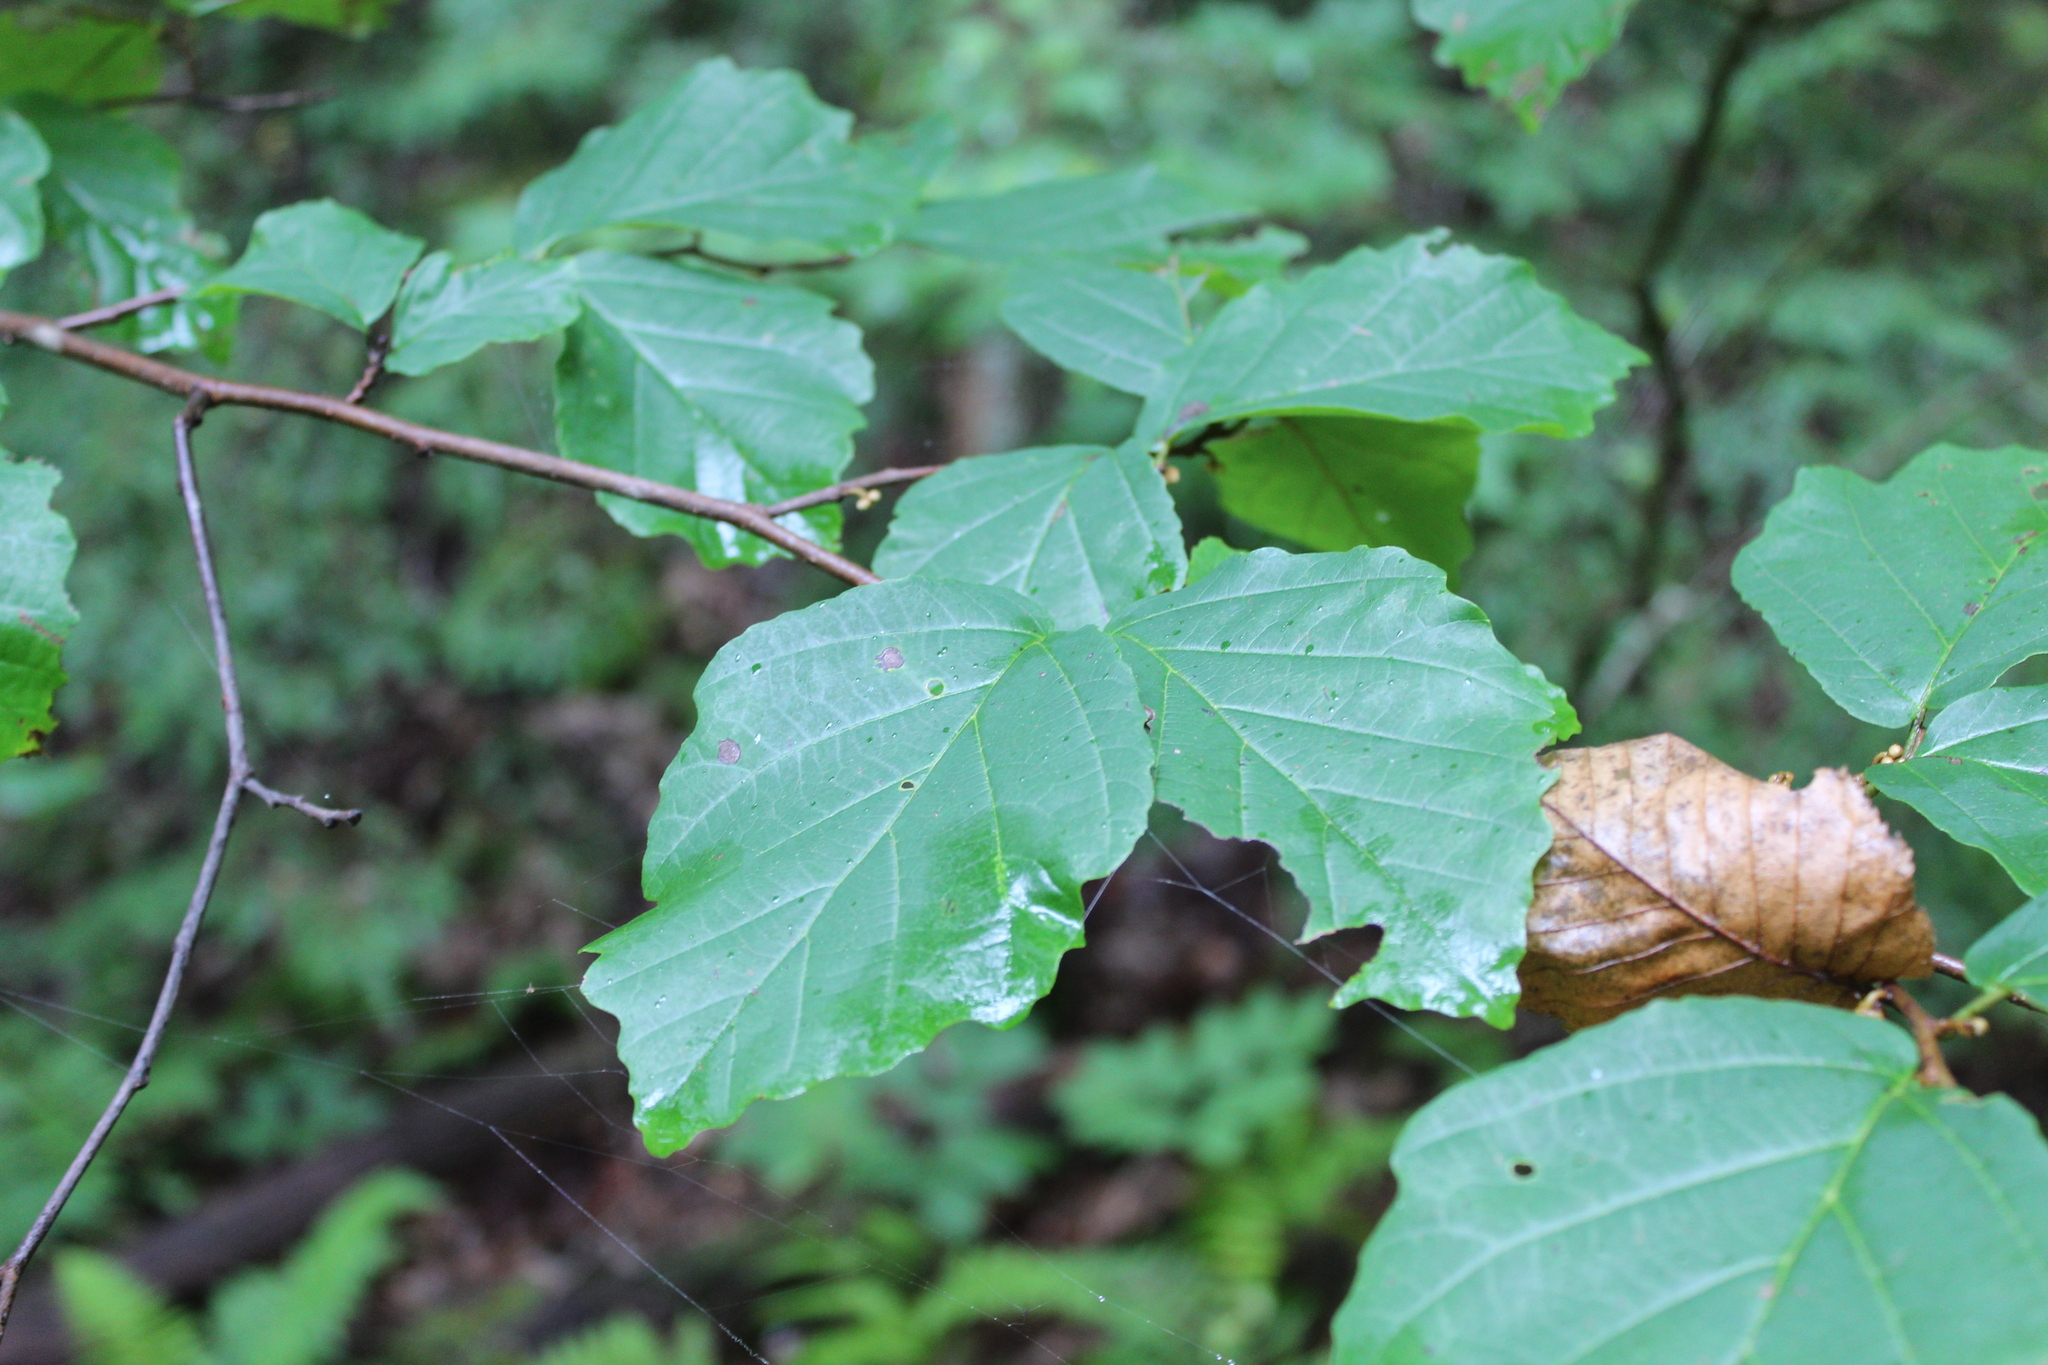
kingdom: Plantae
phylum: Tracheophyta
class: Magnoliopsida
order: Saxifragales
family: Hamamelidaceae
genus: Hamamelis
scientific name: Hamamelis virginiana
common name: Witch-hazel
